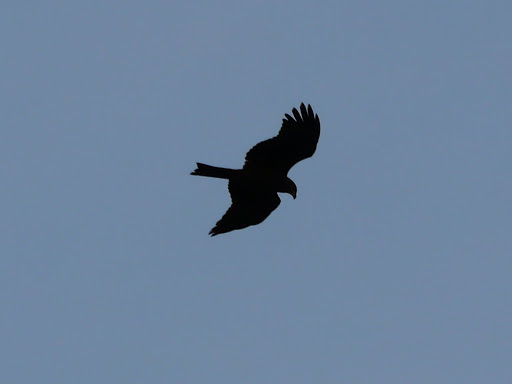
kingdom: Animalia
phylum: Chordata
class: Aves
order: Accipitriformes
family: Accipitridae
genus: Milvus
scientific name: Milvus migrans
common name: Black kite
